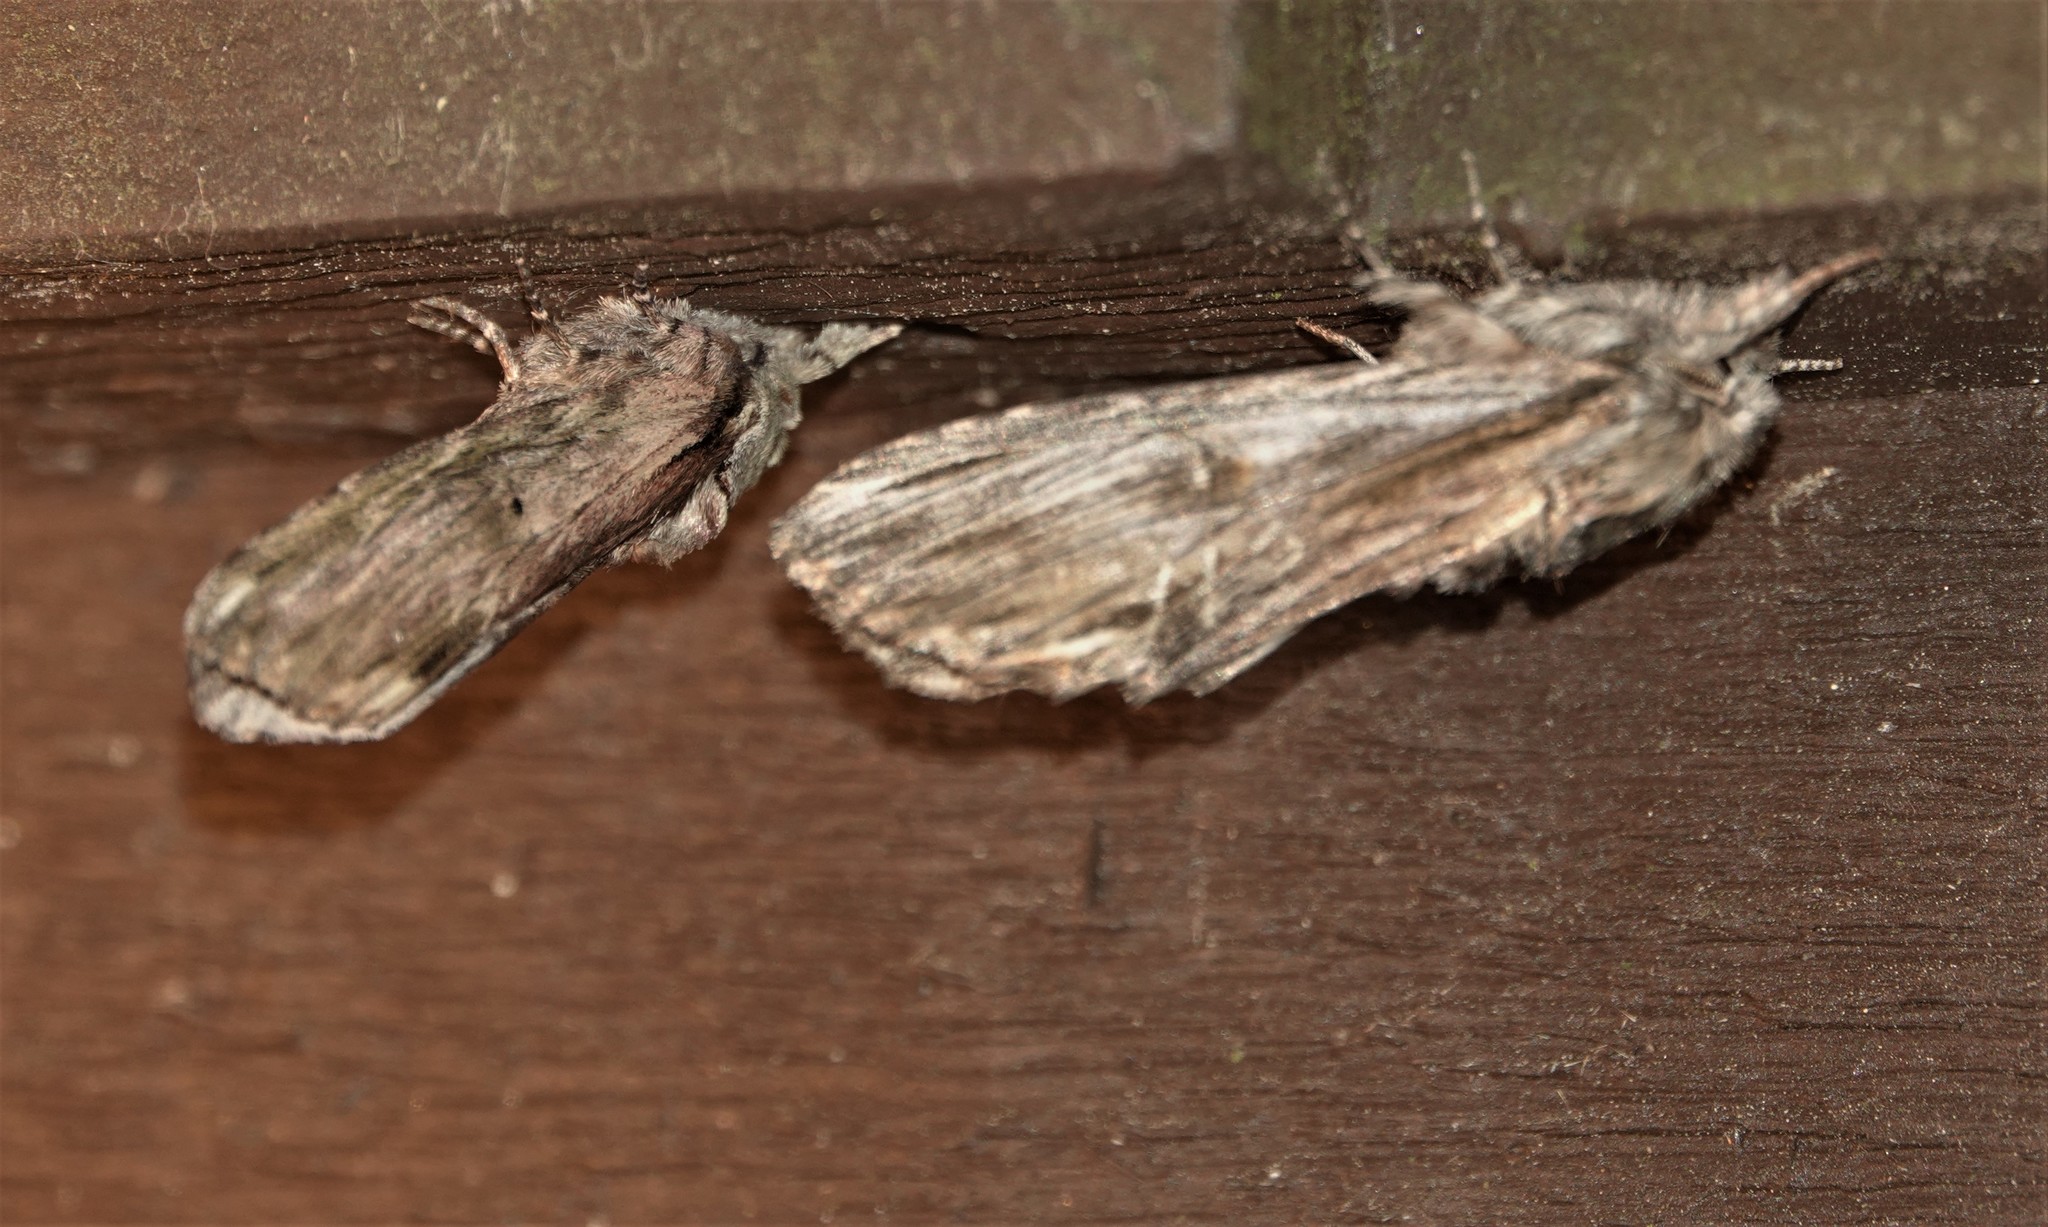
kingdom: Animalia
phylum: Arthropoda
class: Insecta
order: Lepidoptera
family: Notodontidae
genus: Oligocentria
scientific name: Oligocentria Ianassa lignicolor
